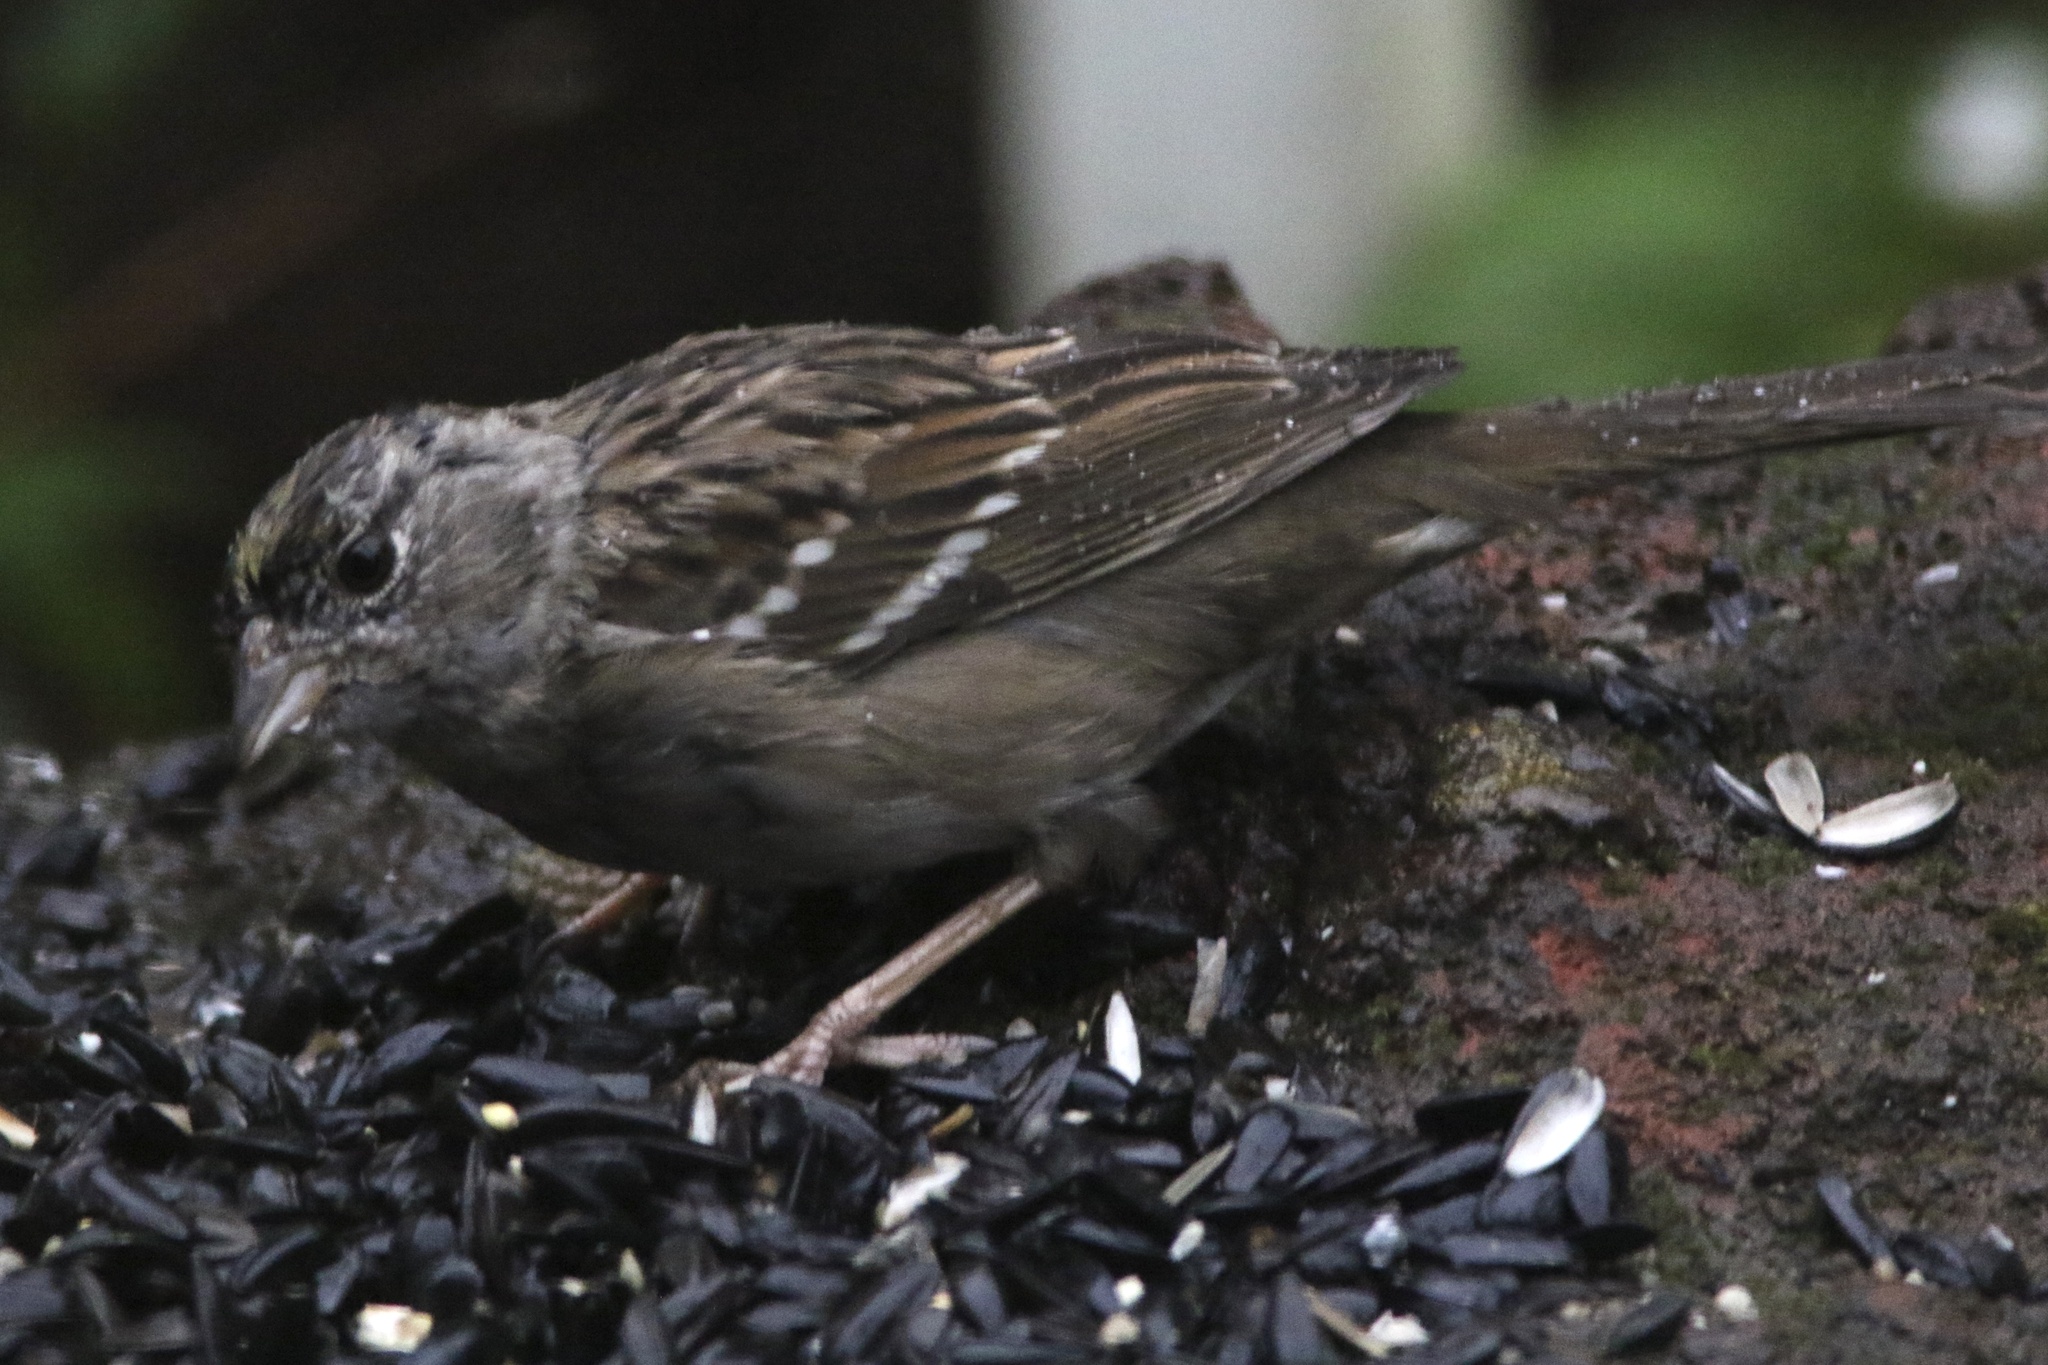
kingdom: Animalia
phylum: Chordata
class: Aves
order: Passeriformes
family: Passerellidae
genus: Zonotrichia
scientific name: Zonotrichia atricapilla
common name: Golden-crowned sparrow
